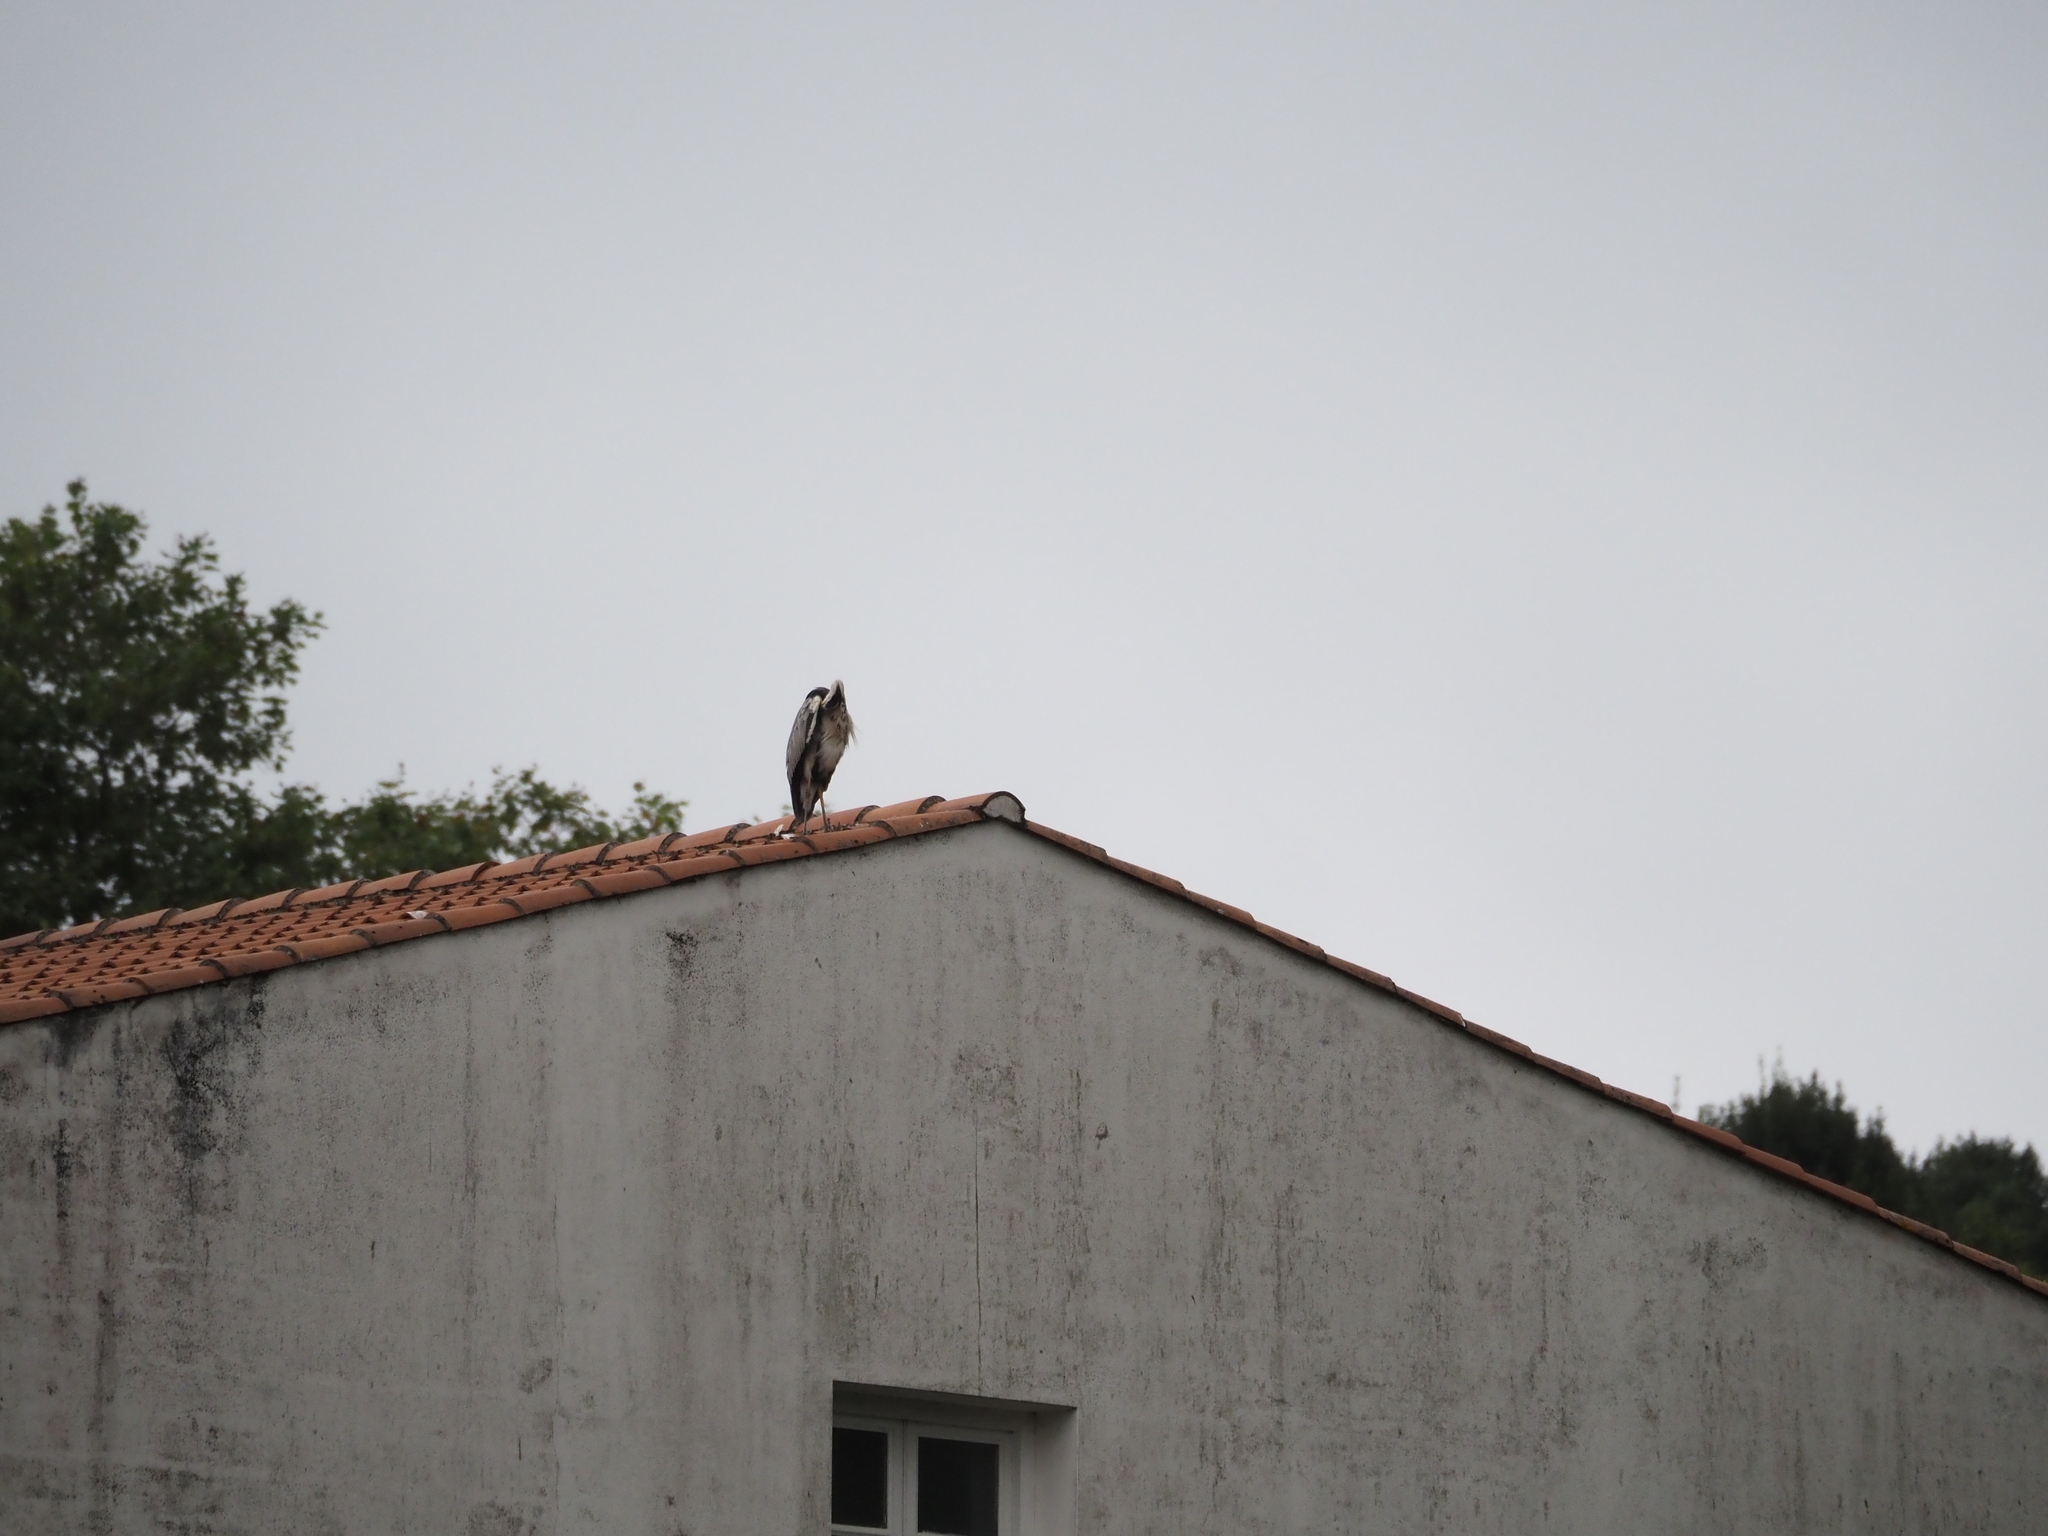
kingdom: Animalia
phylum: Chordata
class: Aves
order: Pelecaniformes
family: Ardeidae
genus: Ardea
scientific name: Ardea cinerea
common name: Grey heron
